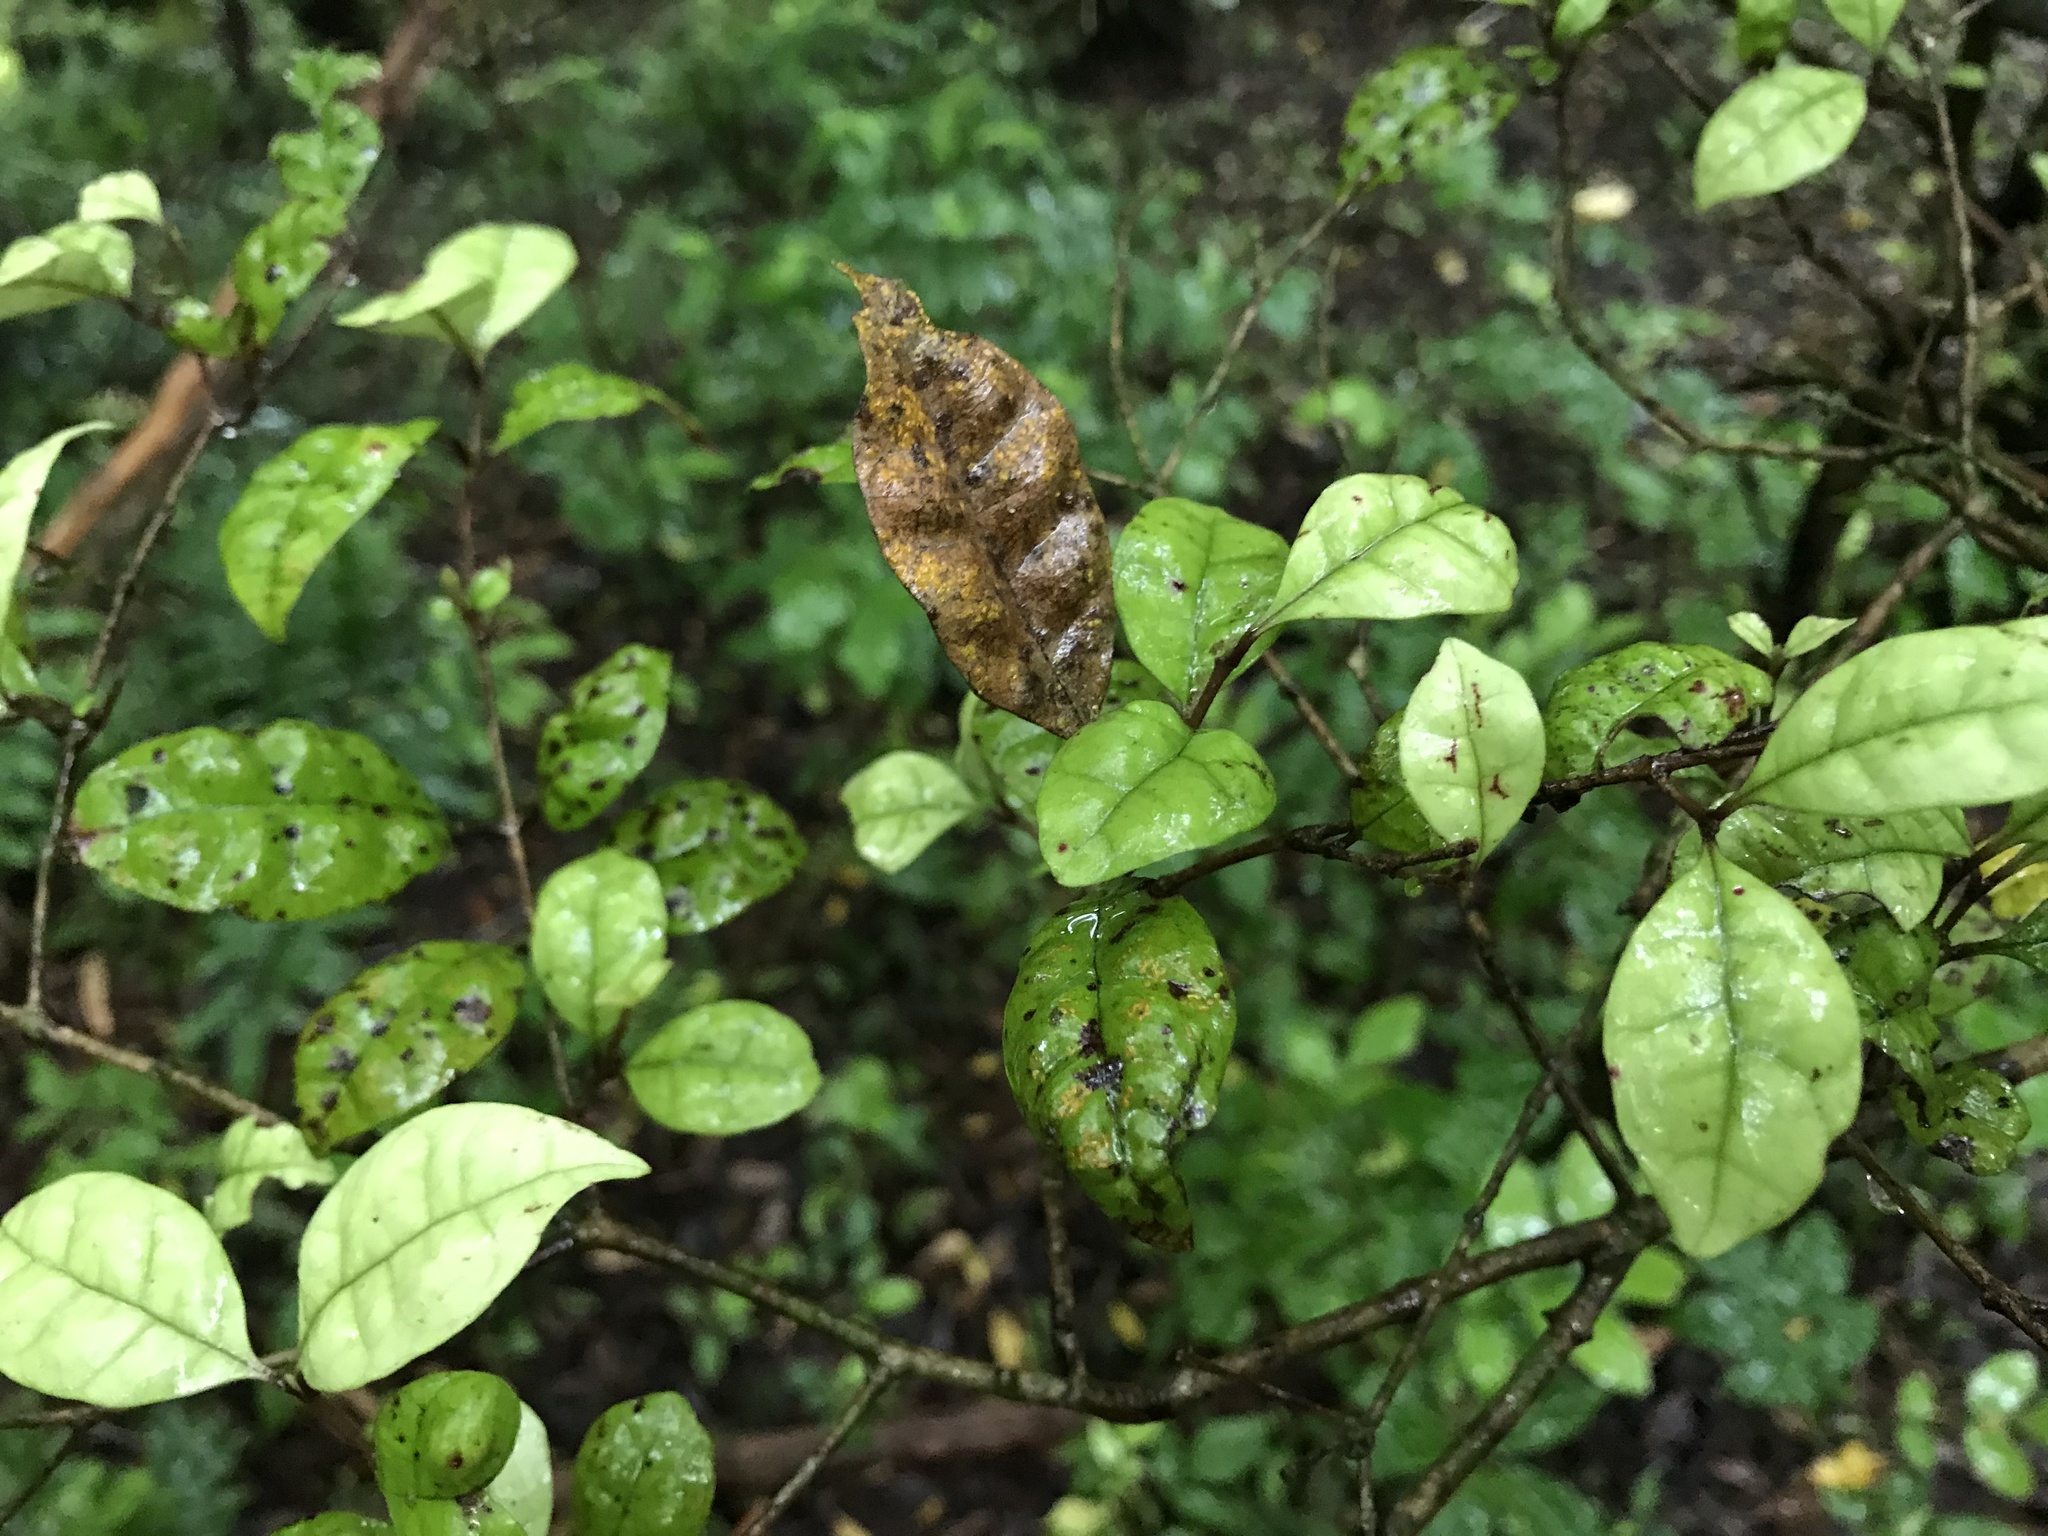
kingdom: Plantae
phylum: Tracheophyta
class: Magnoliopsida
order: Myrtales
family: Myrtaceae
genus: Lophomyrtus
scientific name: Lophomyrtus bullata
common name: Rama rama
